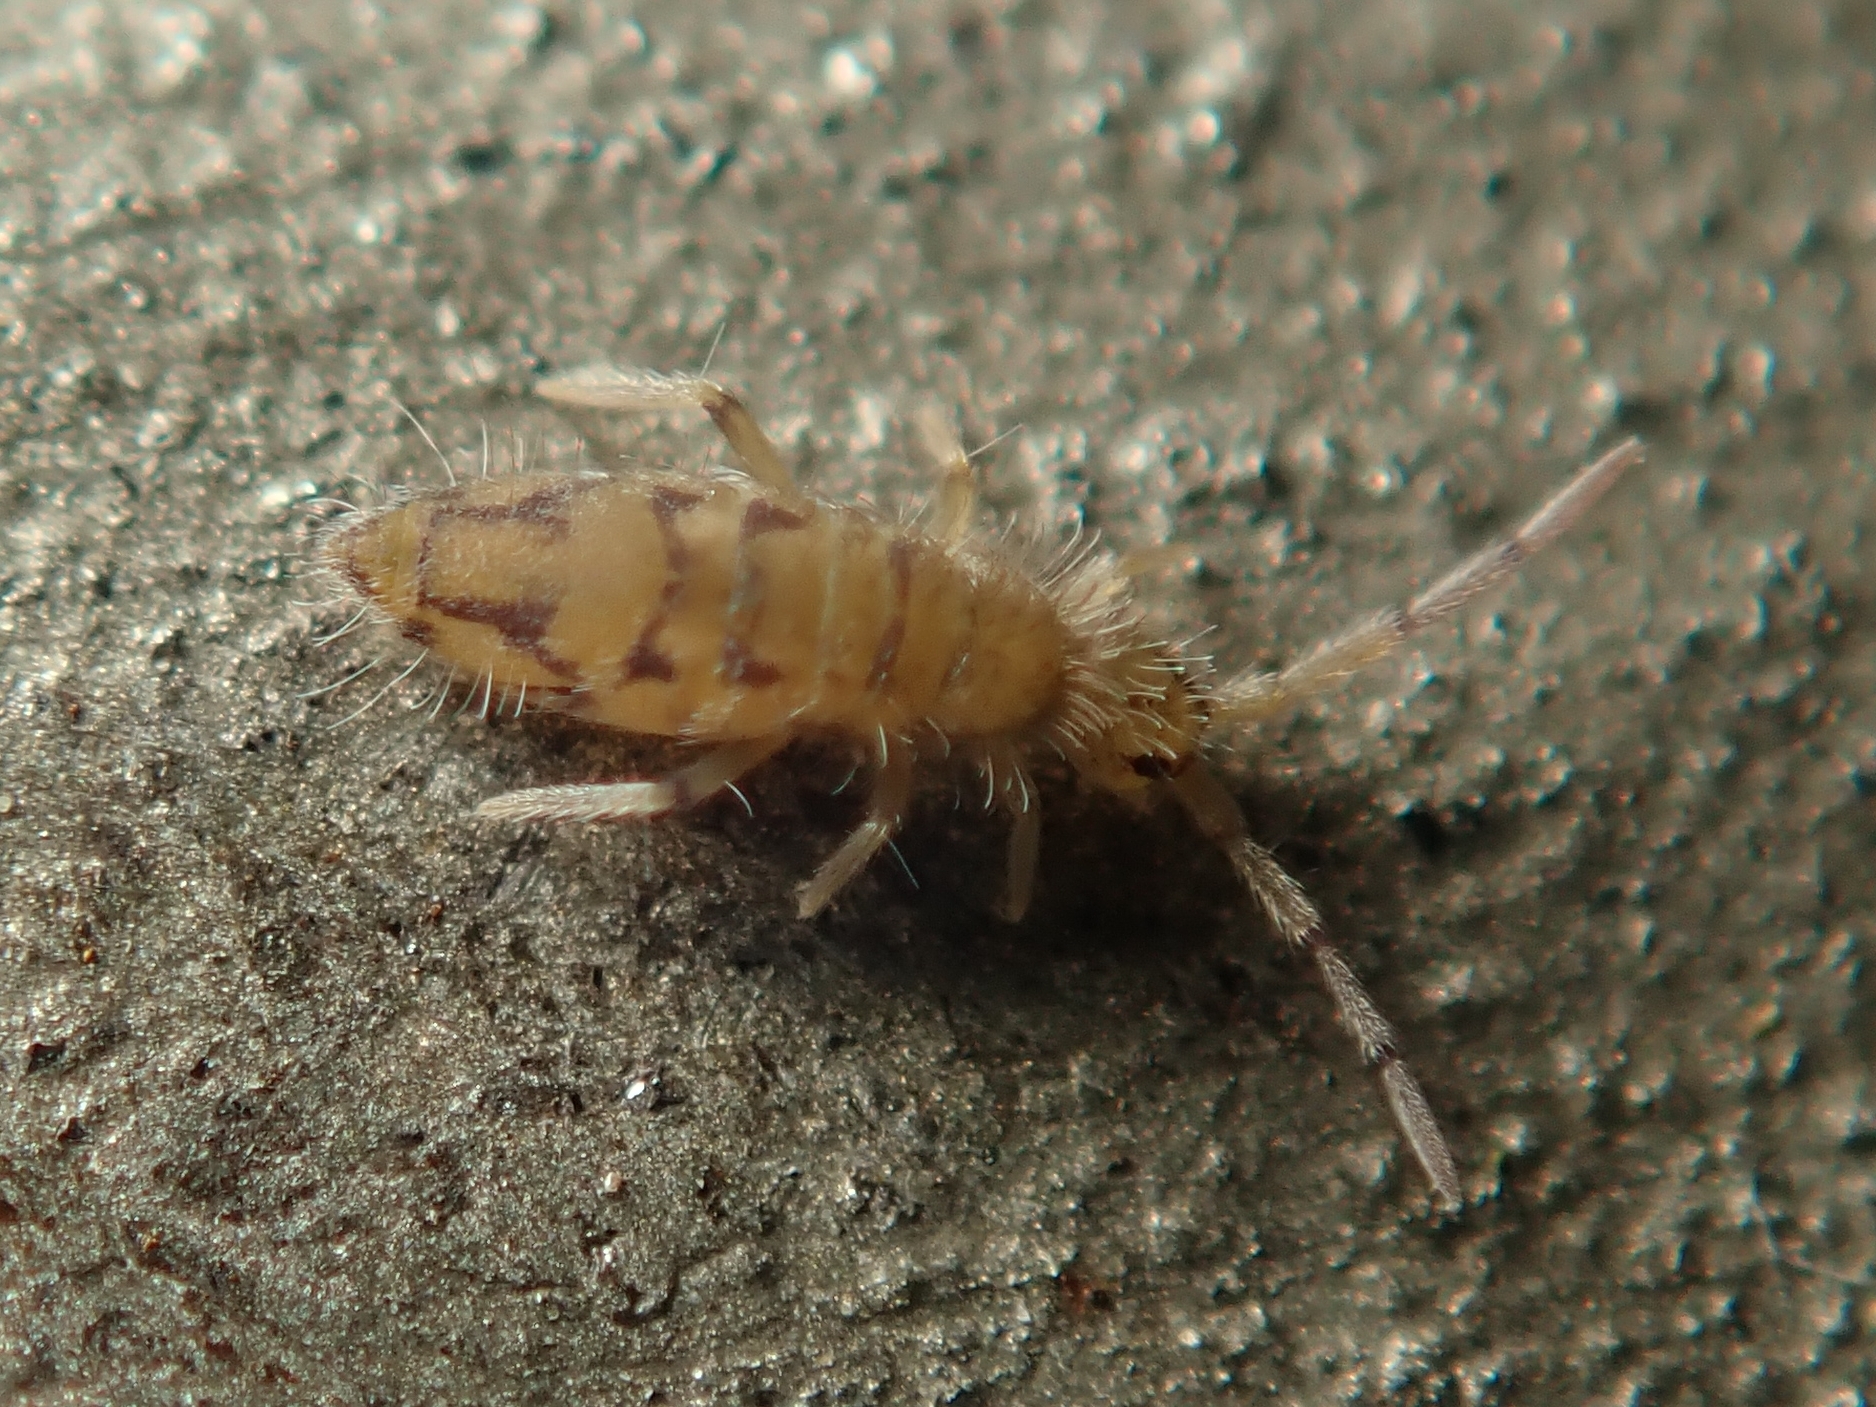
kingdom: Animalia
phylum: Arthropoda
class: Collembola
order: Entomobryomorpha
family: Entomobryidae
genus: Entomobrya
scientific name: Entomobrya nivalis
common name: Cosmopolitan springtail
